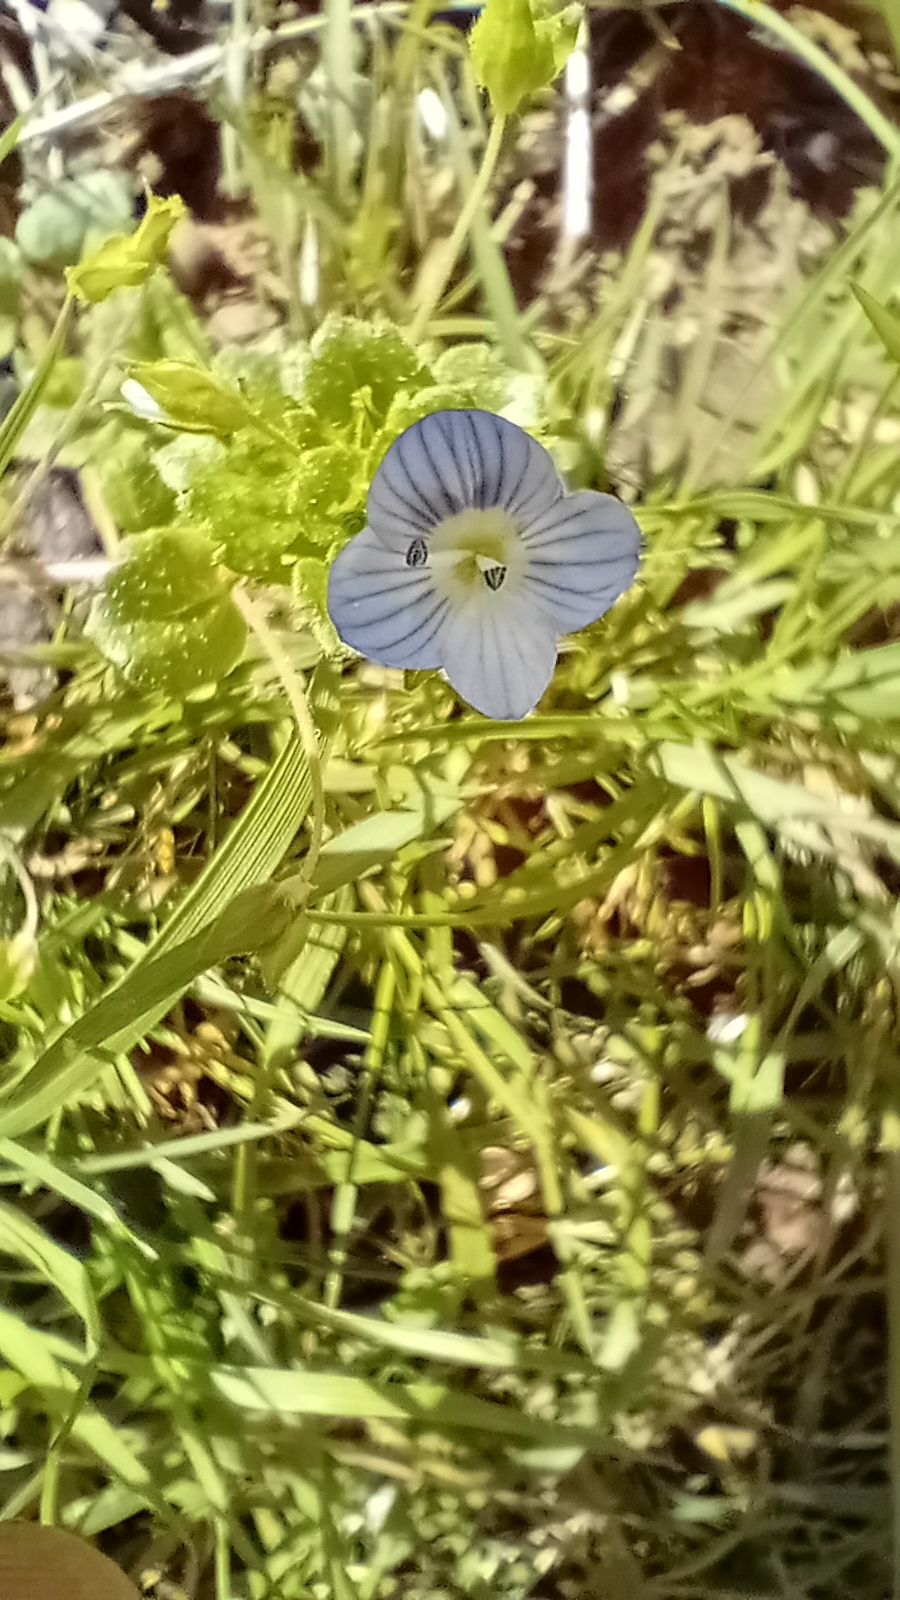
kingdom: Plantae
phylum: Tracheophyta
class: Magnoliopsida
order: Lamiales
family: Plantaginaceae
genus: Veronica
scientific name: Veronica persica
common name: Common field-speedwell
